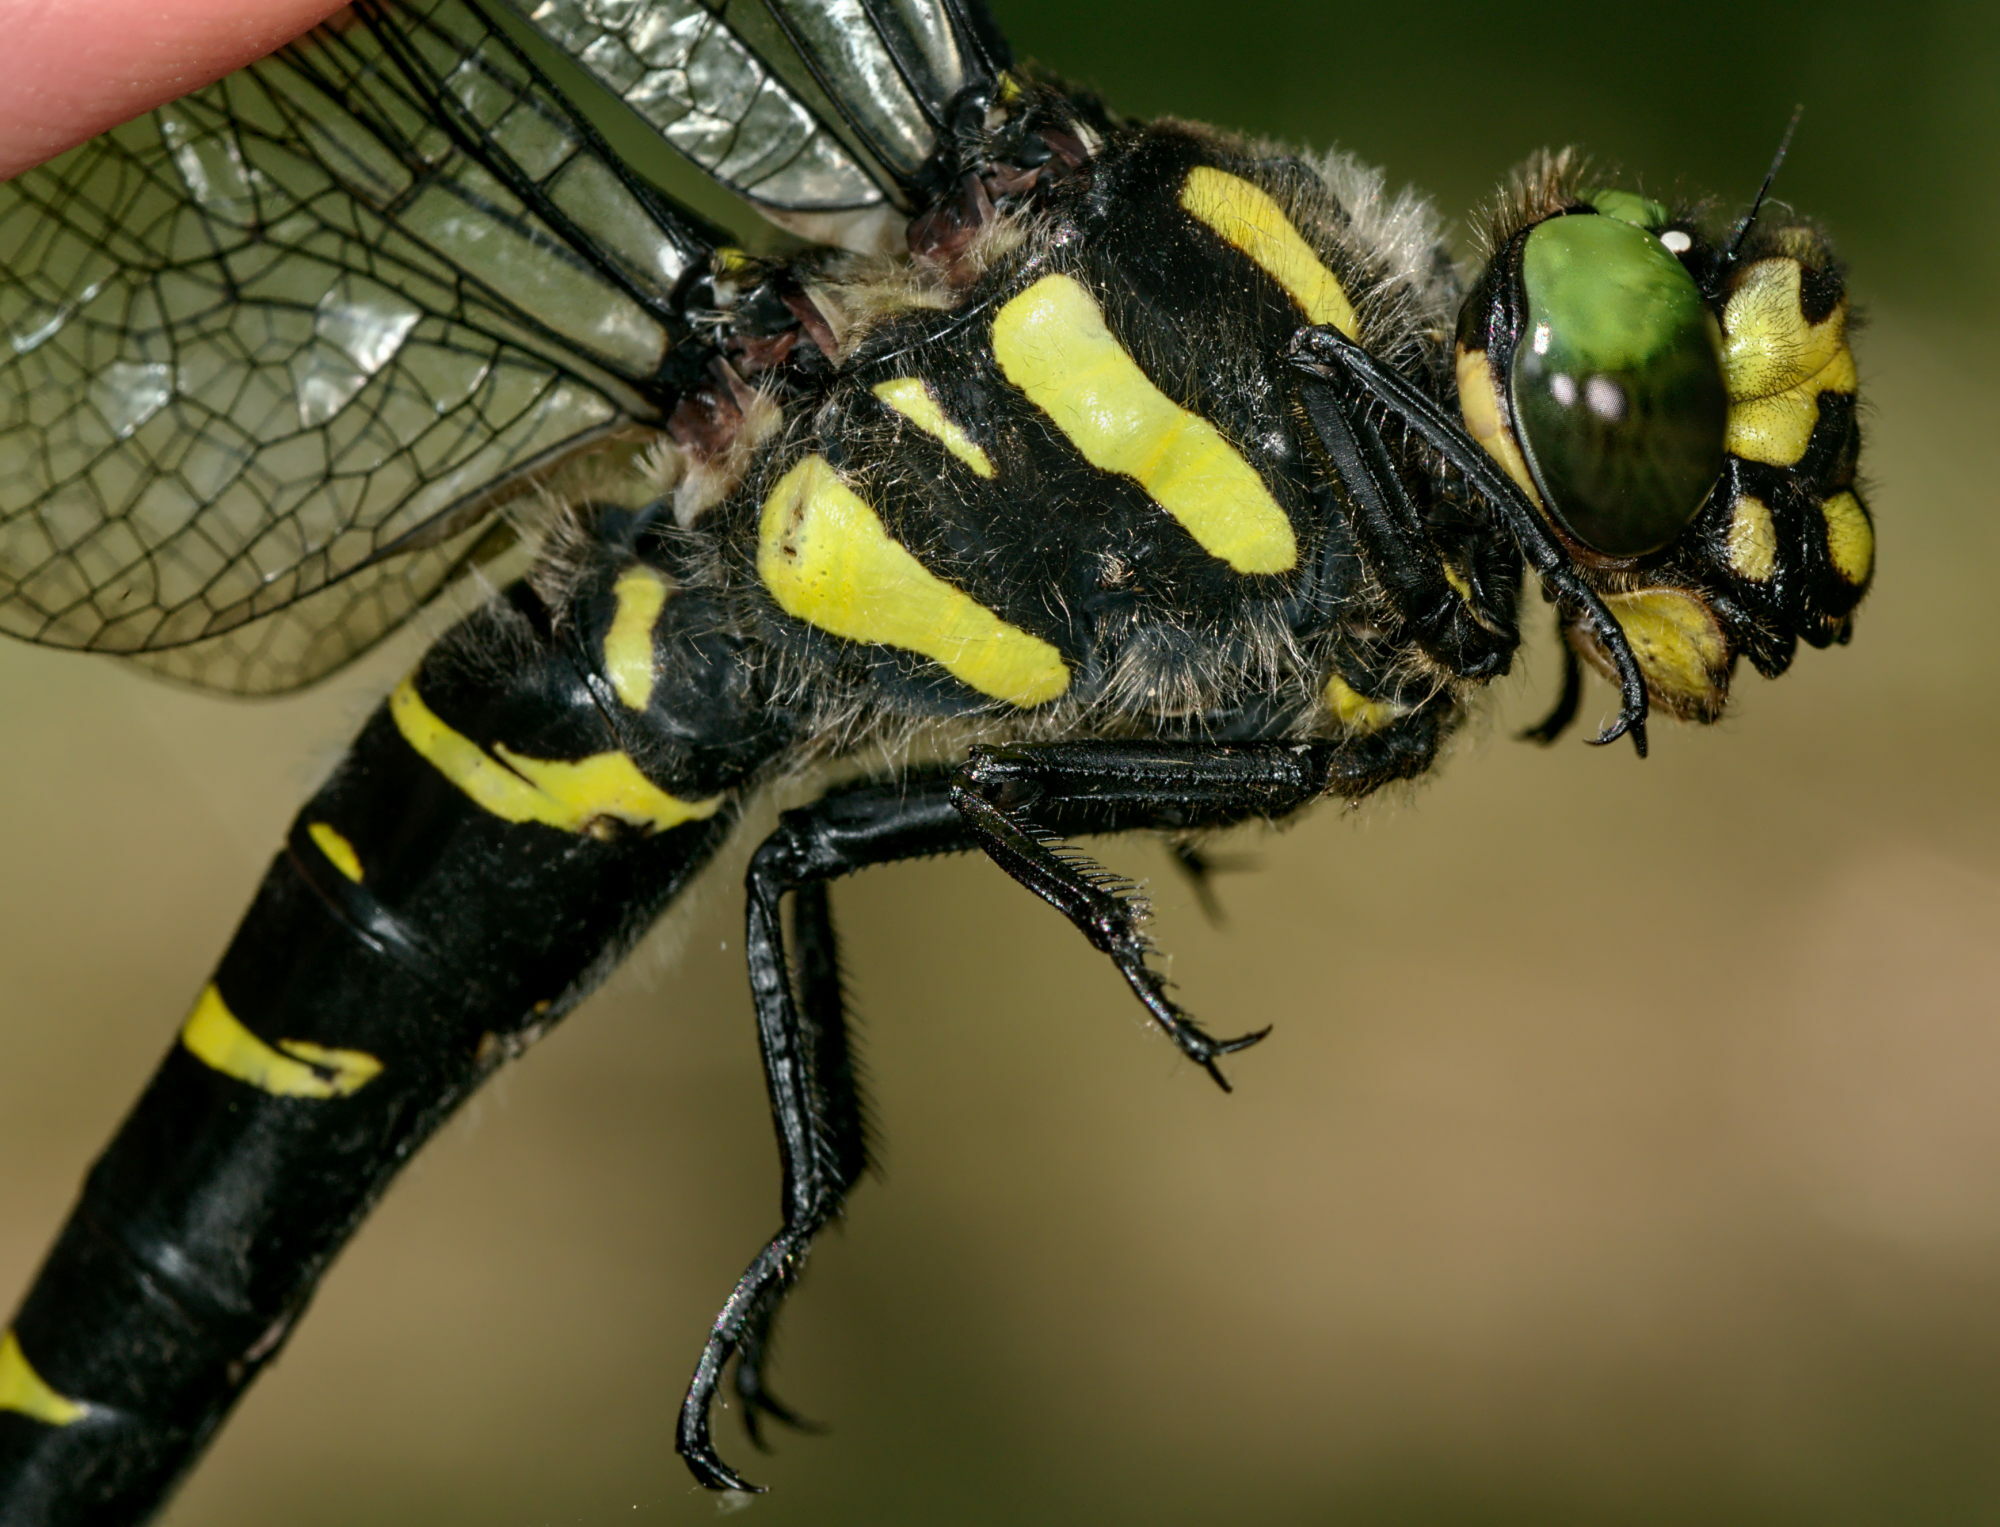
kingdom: Animalia
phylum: Arthropoda
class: Insecta
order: Odonata
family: Cordulegastridae
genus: Cordulegaster
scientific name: Cordulegaster bidentata
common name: Sombre goldenring
